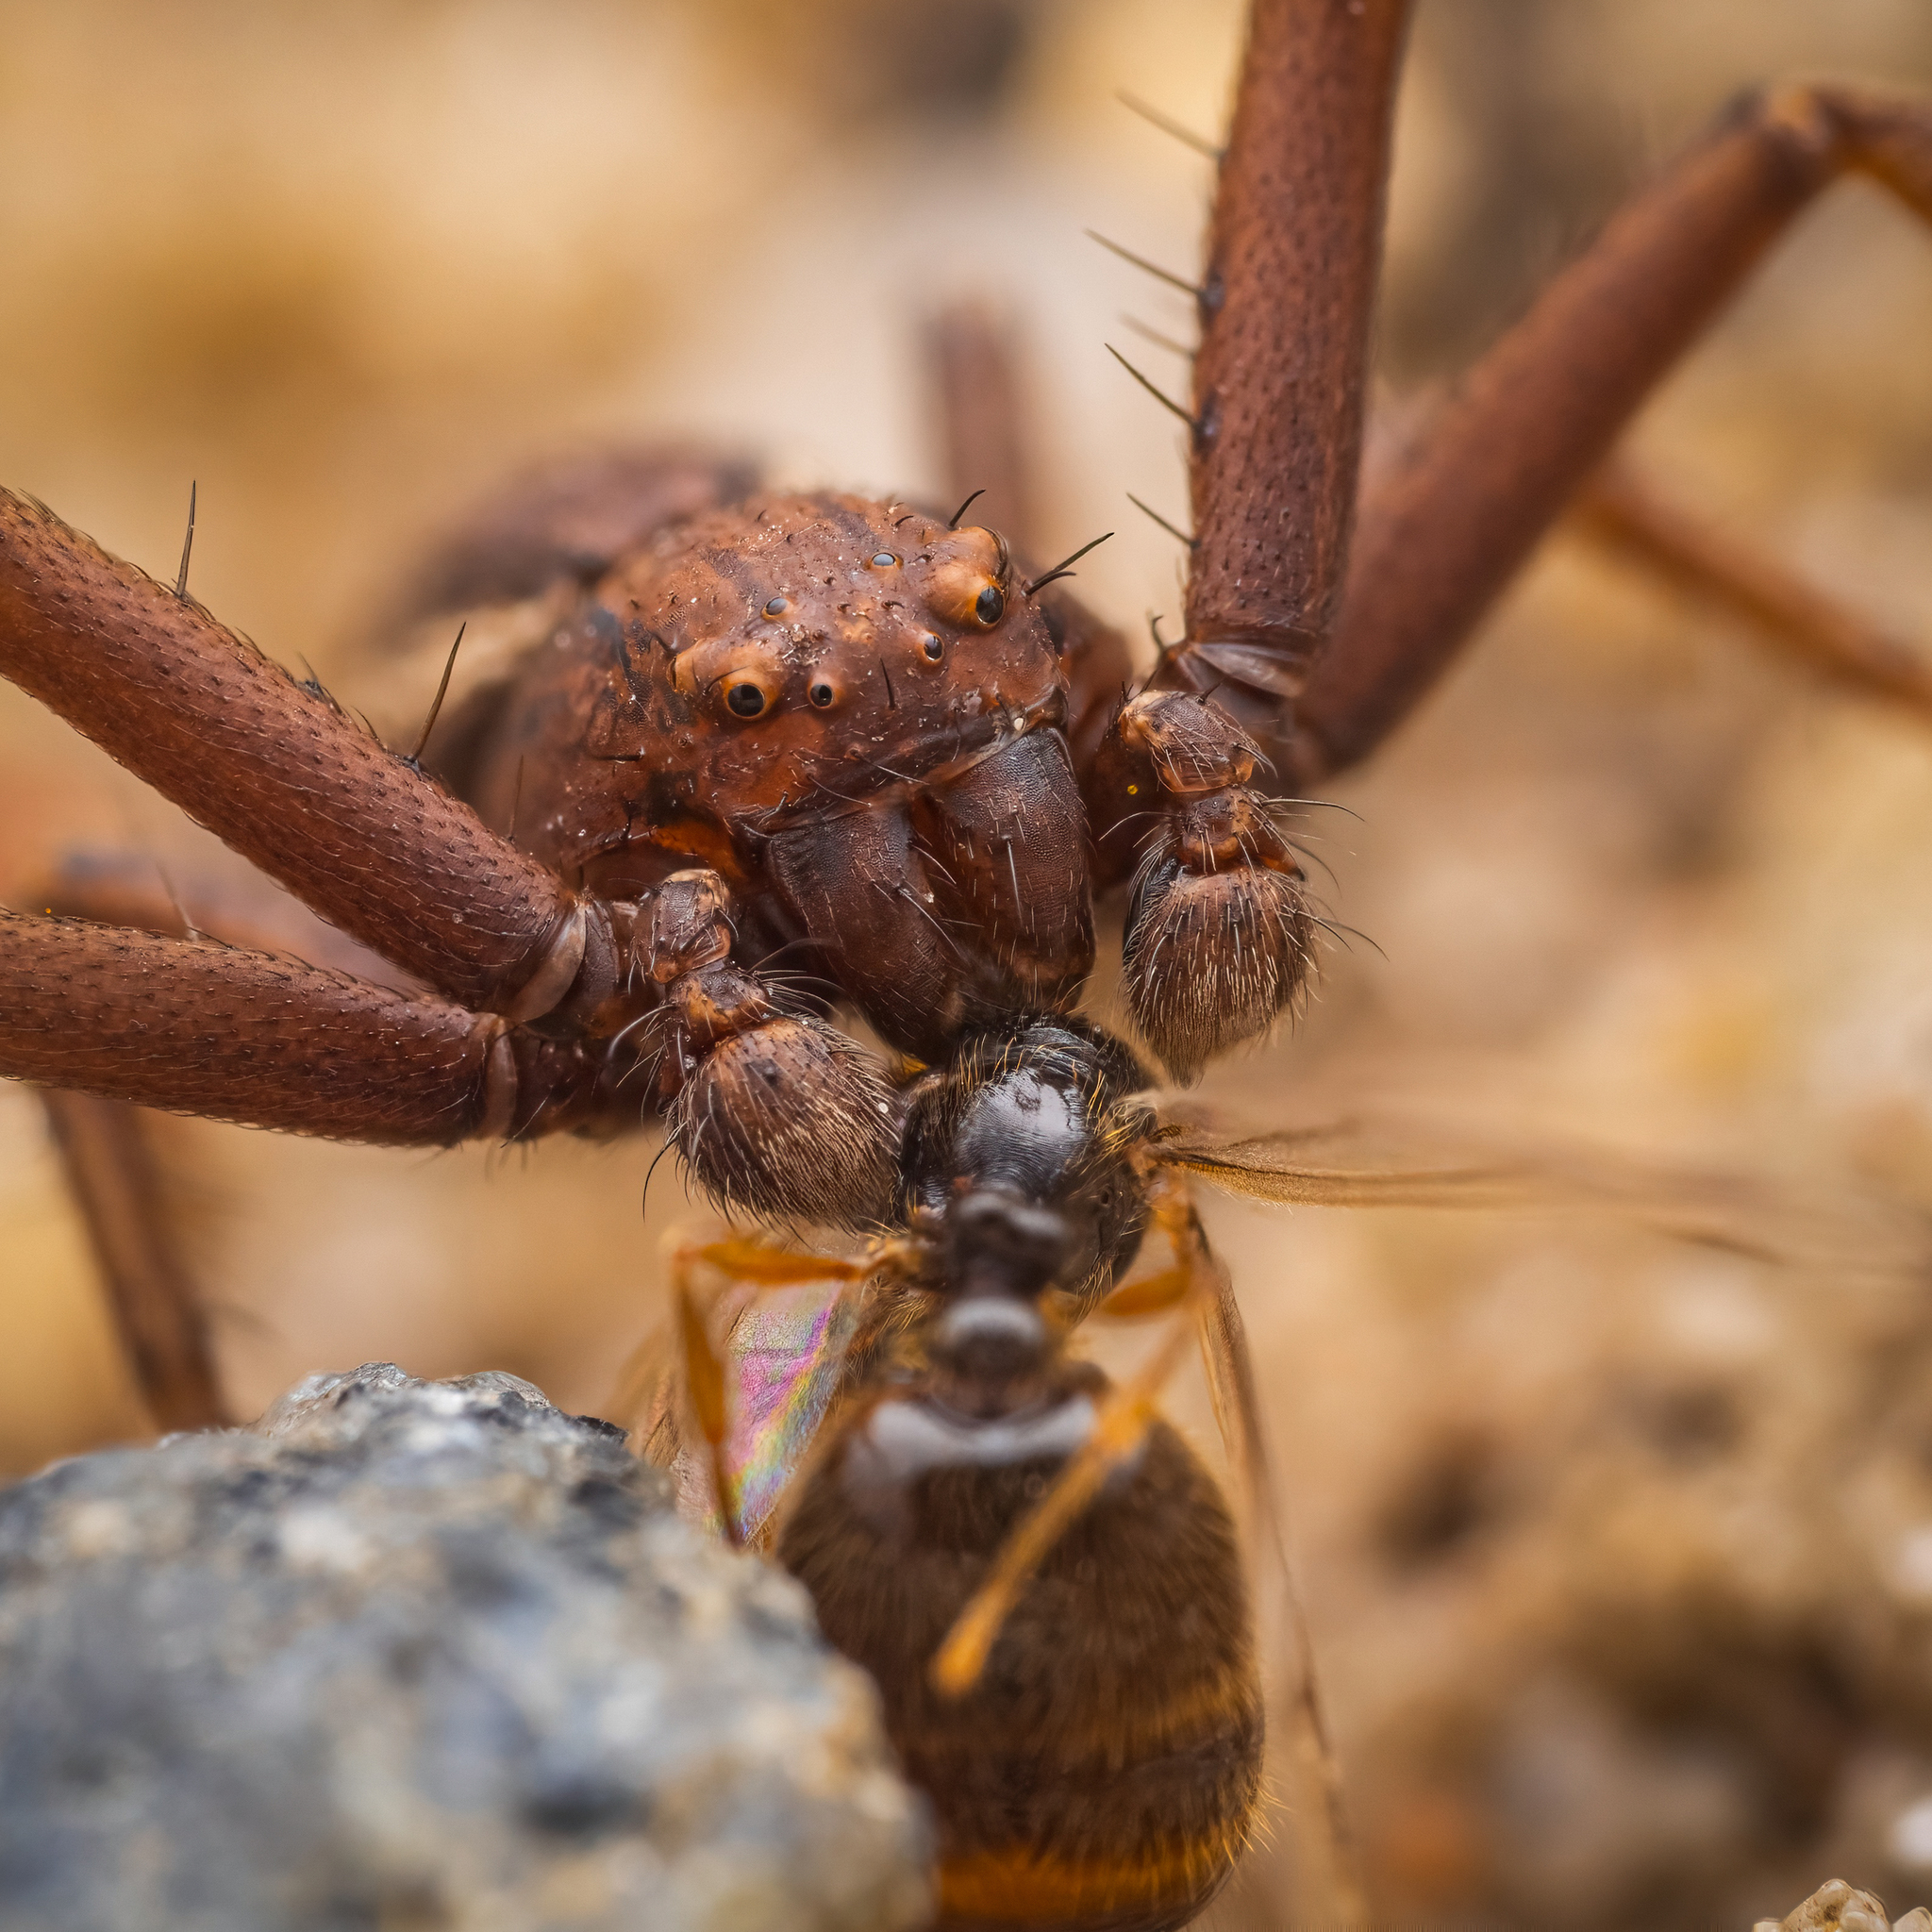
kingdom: Animalia
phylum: Arthropoda
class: Arachnida
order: Araneae
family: Thomisidae
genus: Spiracme
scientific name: Spiracme striatipes
